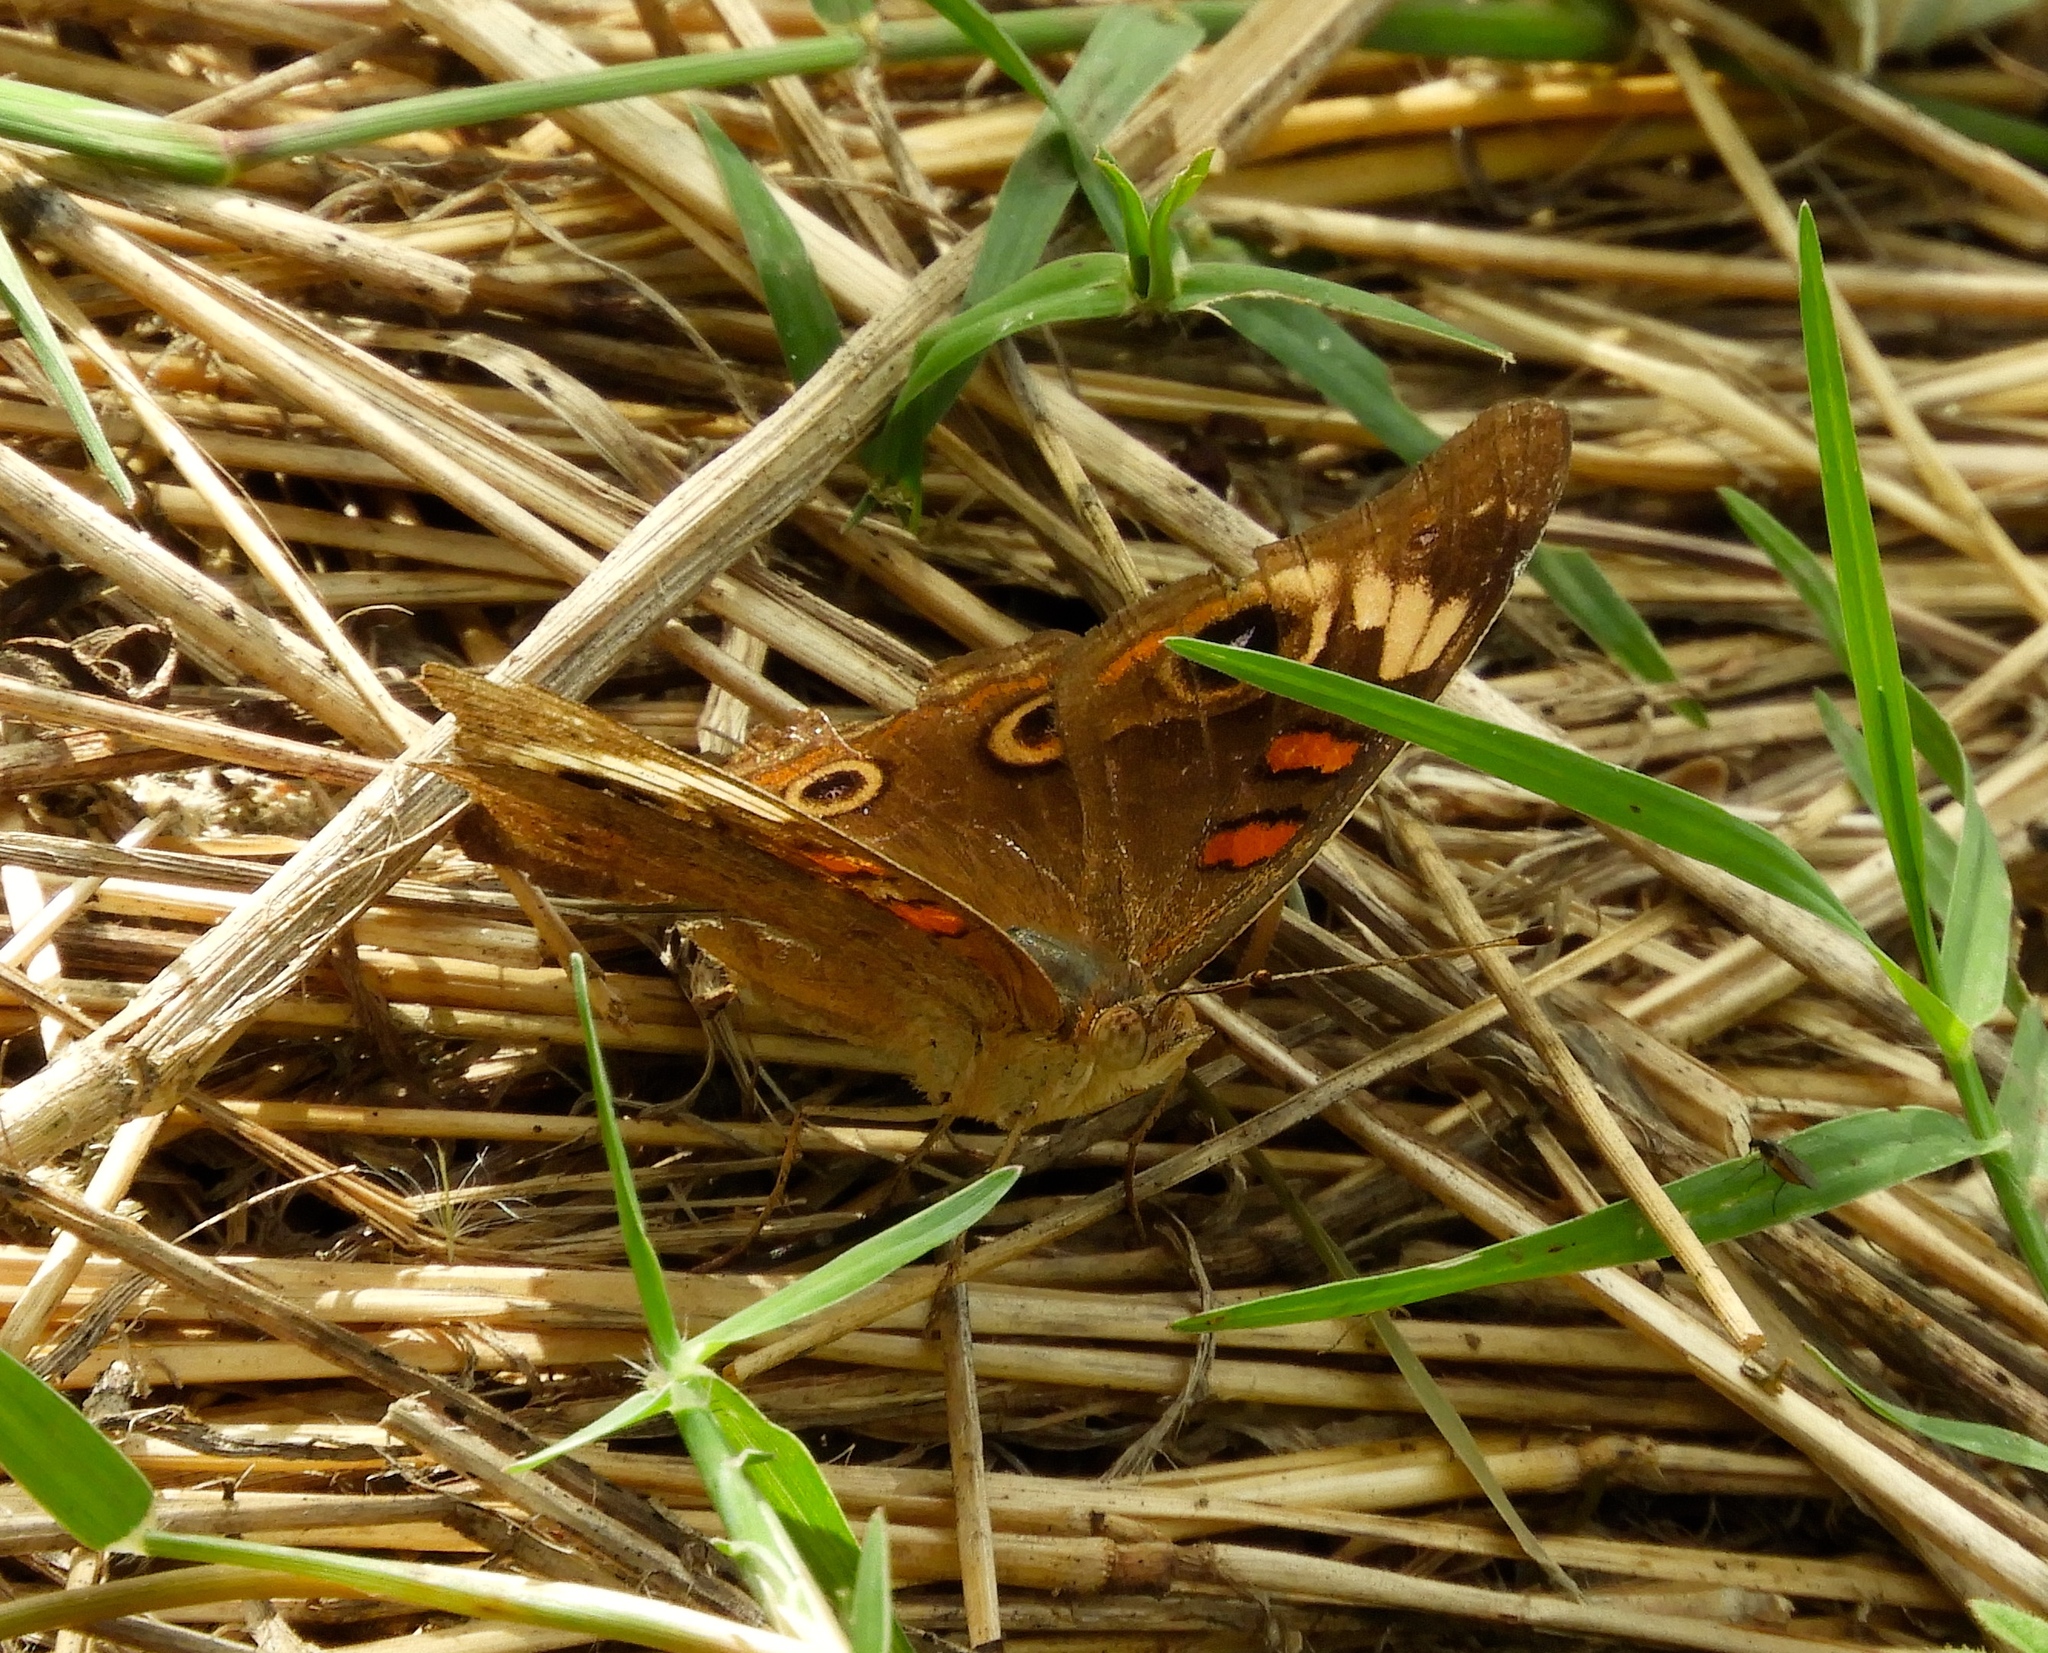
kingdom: Animalia
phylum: Arthropoda
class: Insecta
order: Lepidoptera
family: Nymphalidae
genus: Junonia
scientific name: Junonia
